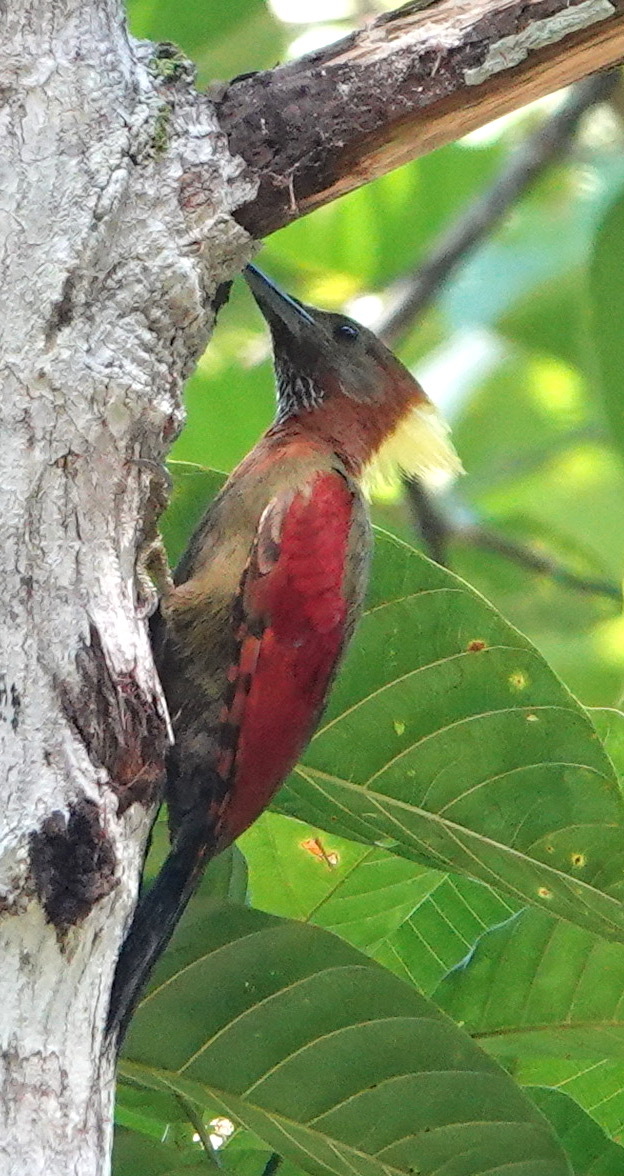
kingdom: Animalia
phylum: Chordata
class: Aves
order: Piciformes
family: Picidae
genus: Chrysophlegma
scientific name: Chrysophlegma mentale
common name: Checker-throated woodpecker
